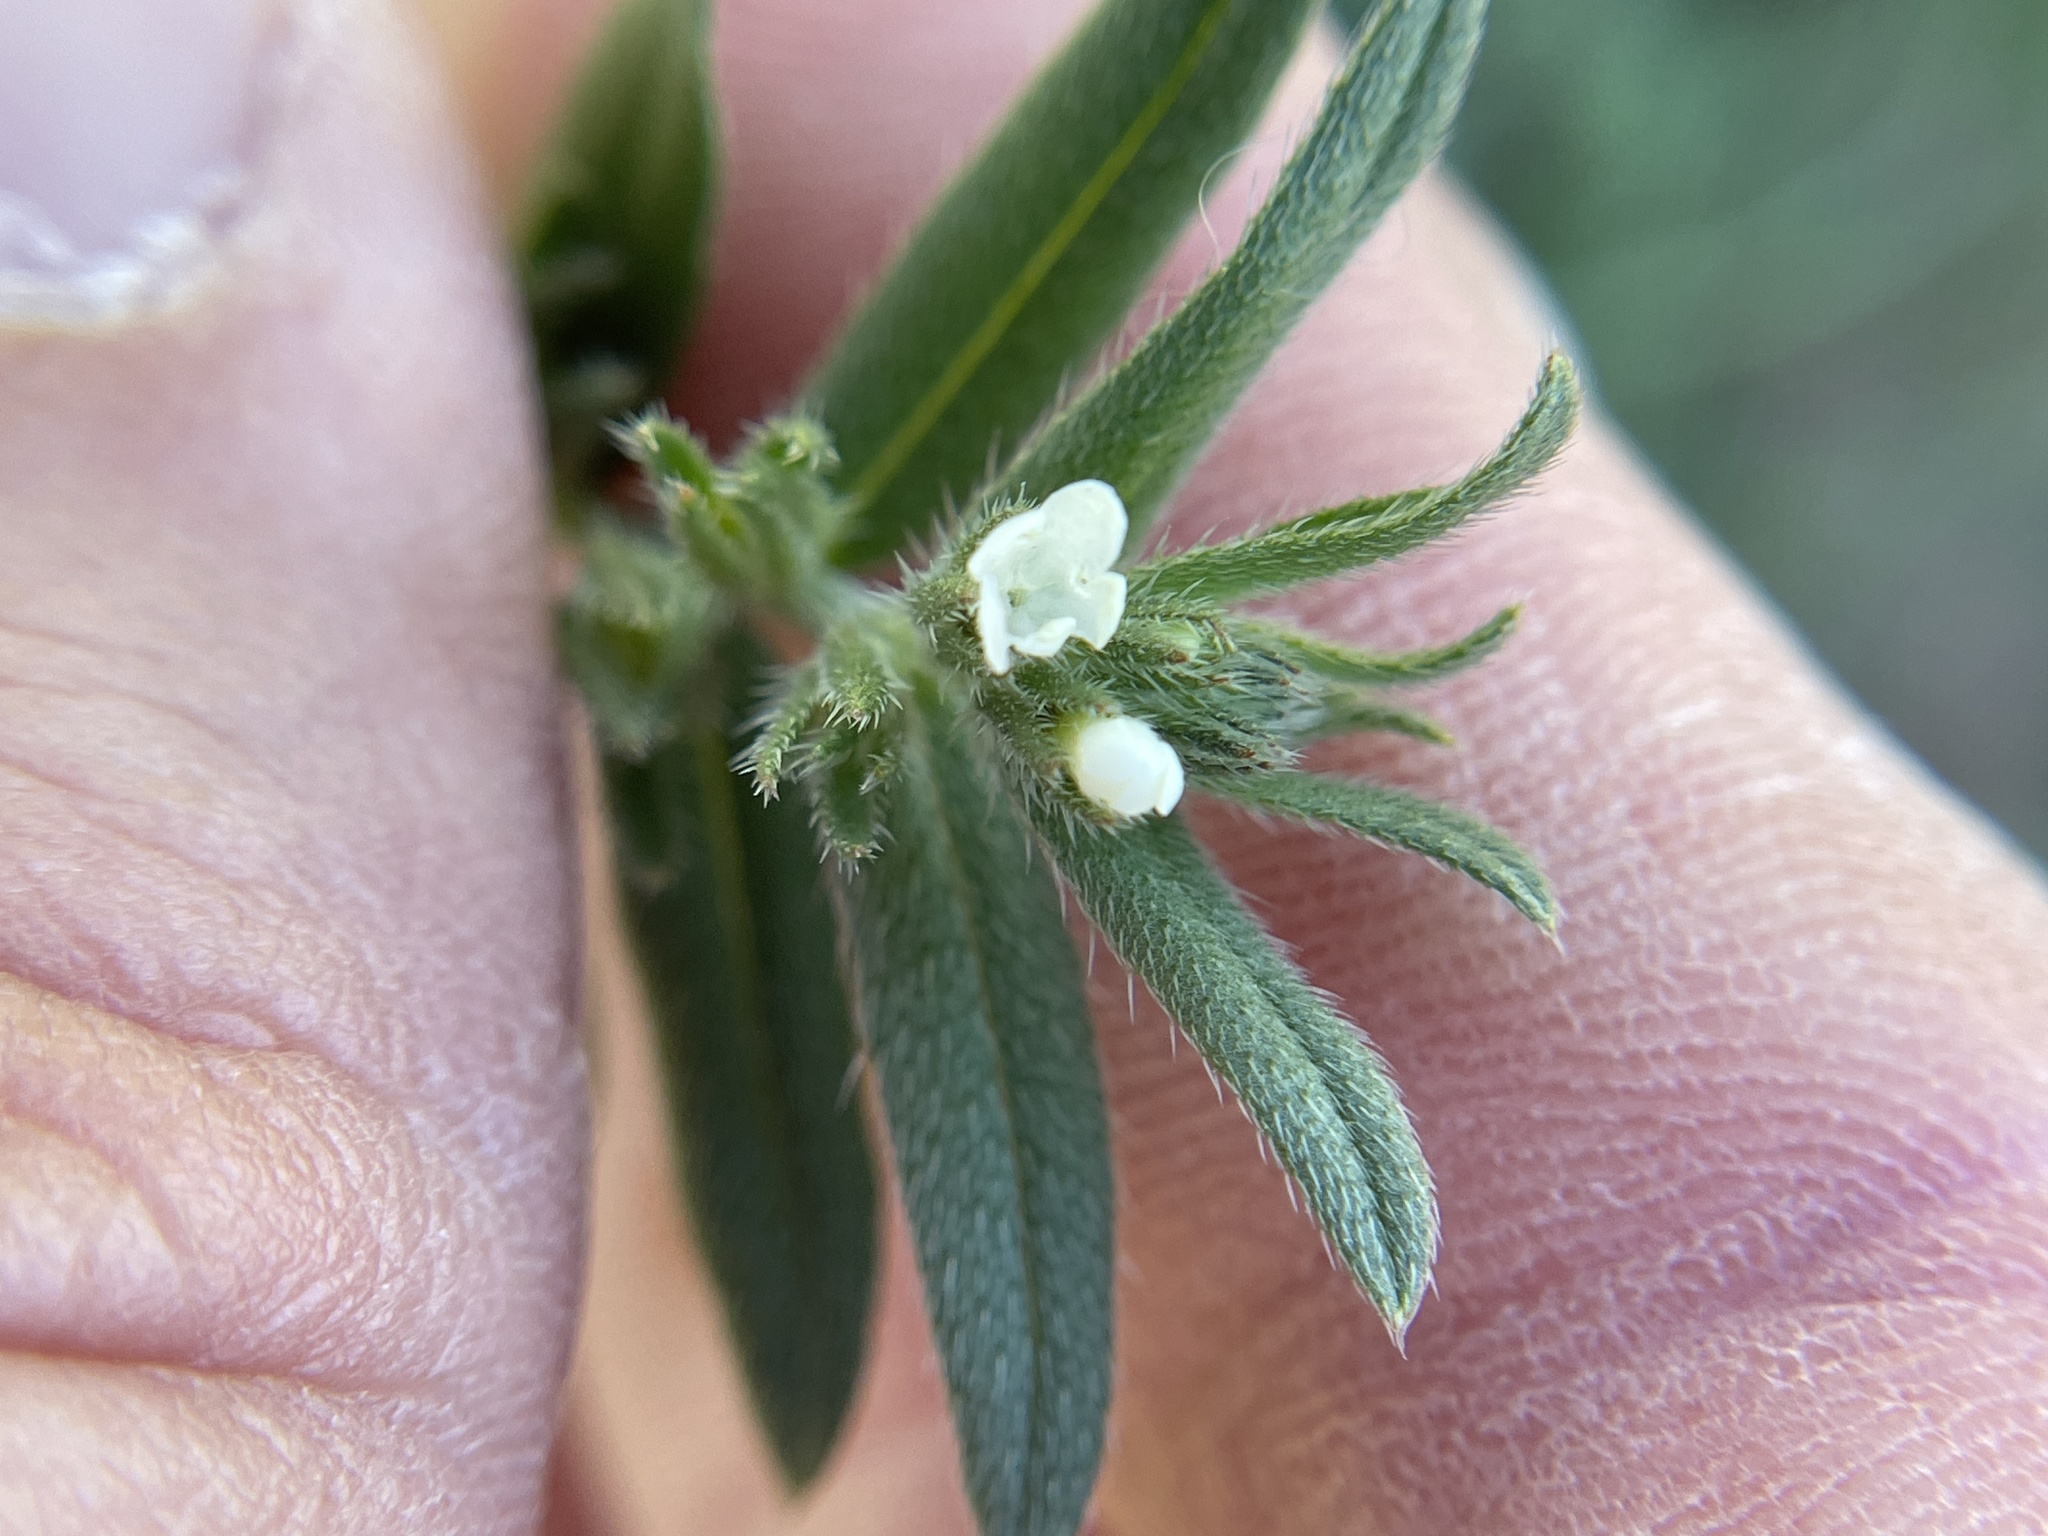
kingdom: Plantae
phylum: Tracheophyta
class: Magnoliopsida
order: Boraginales
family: Boraginaceae
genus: Buglossoides
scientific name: Buglossoides arvensis
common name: Corn gromwell
